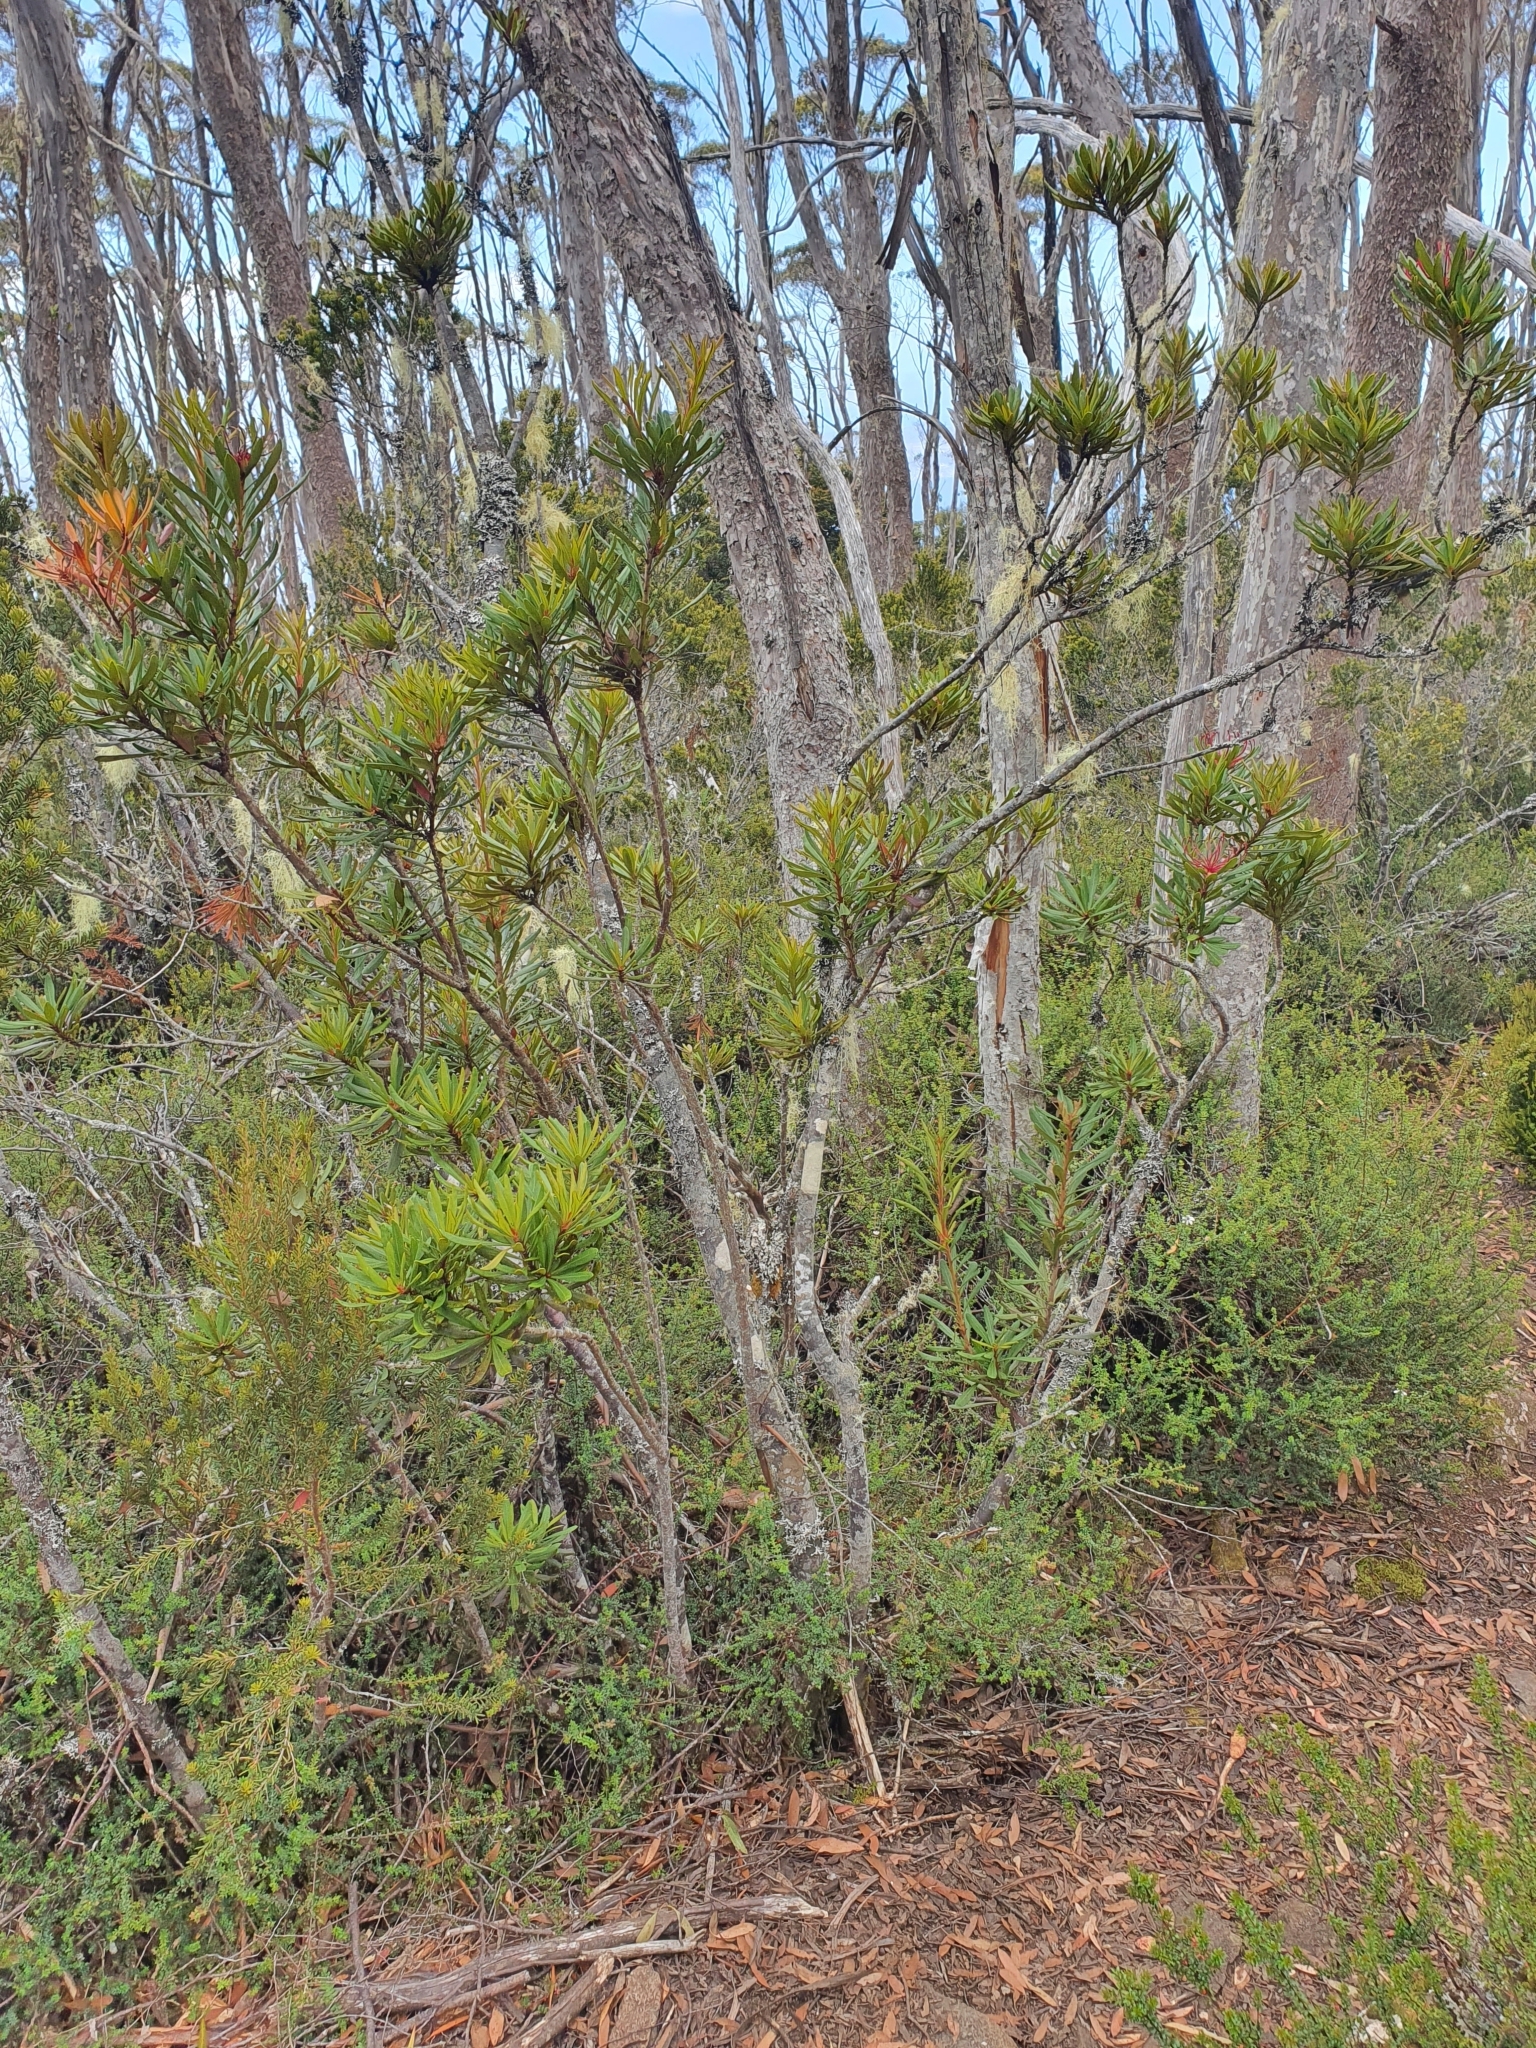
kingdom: Plantae
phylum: Tracheophyta
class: Magnoliopsida
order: Proteales
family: Proteaceae
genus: Telopea
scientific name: Telopea truncata
